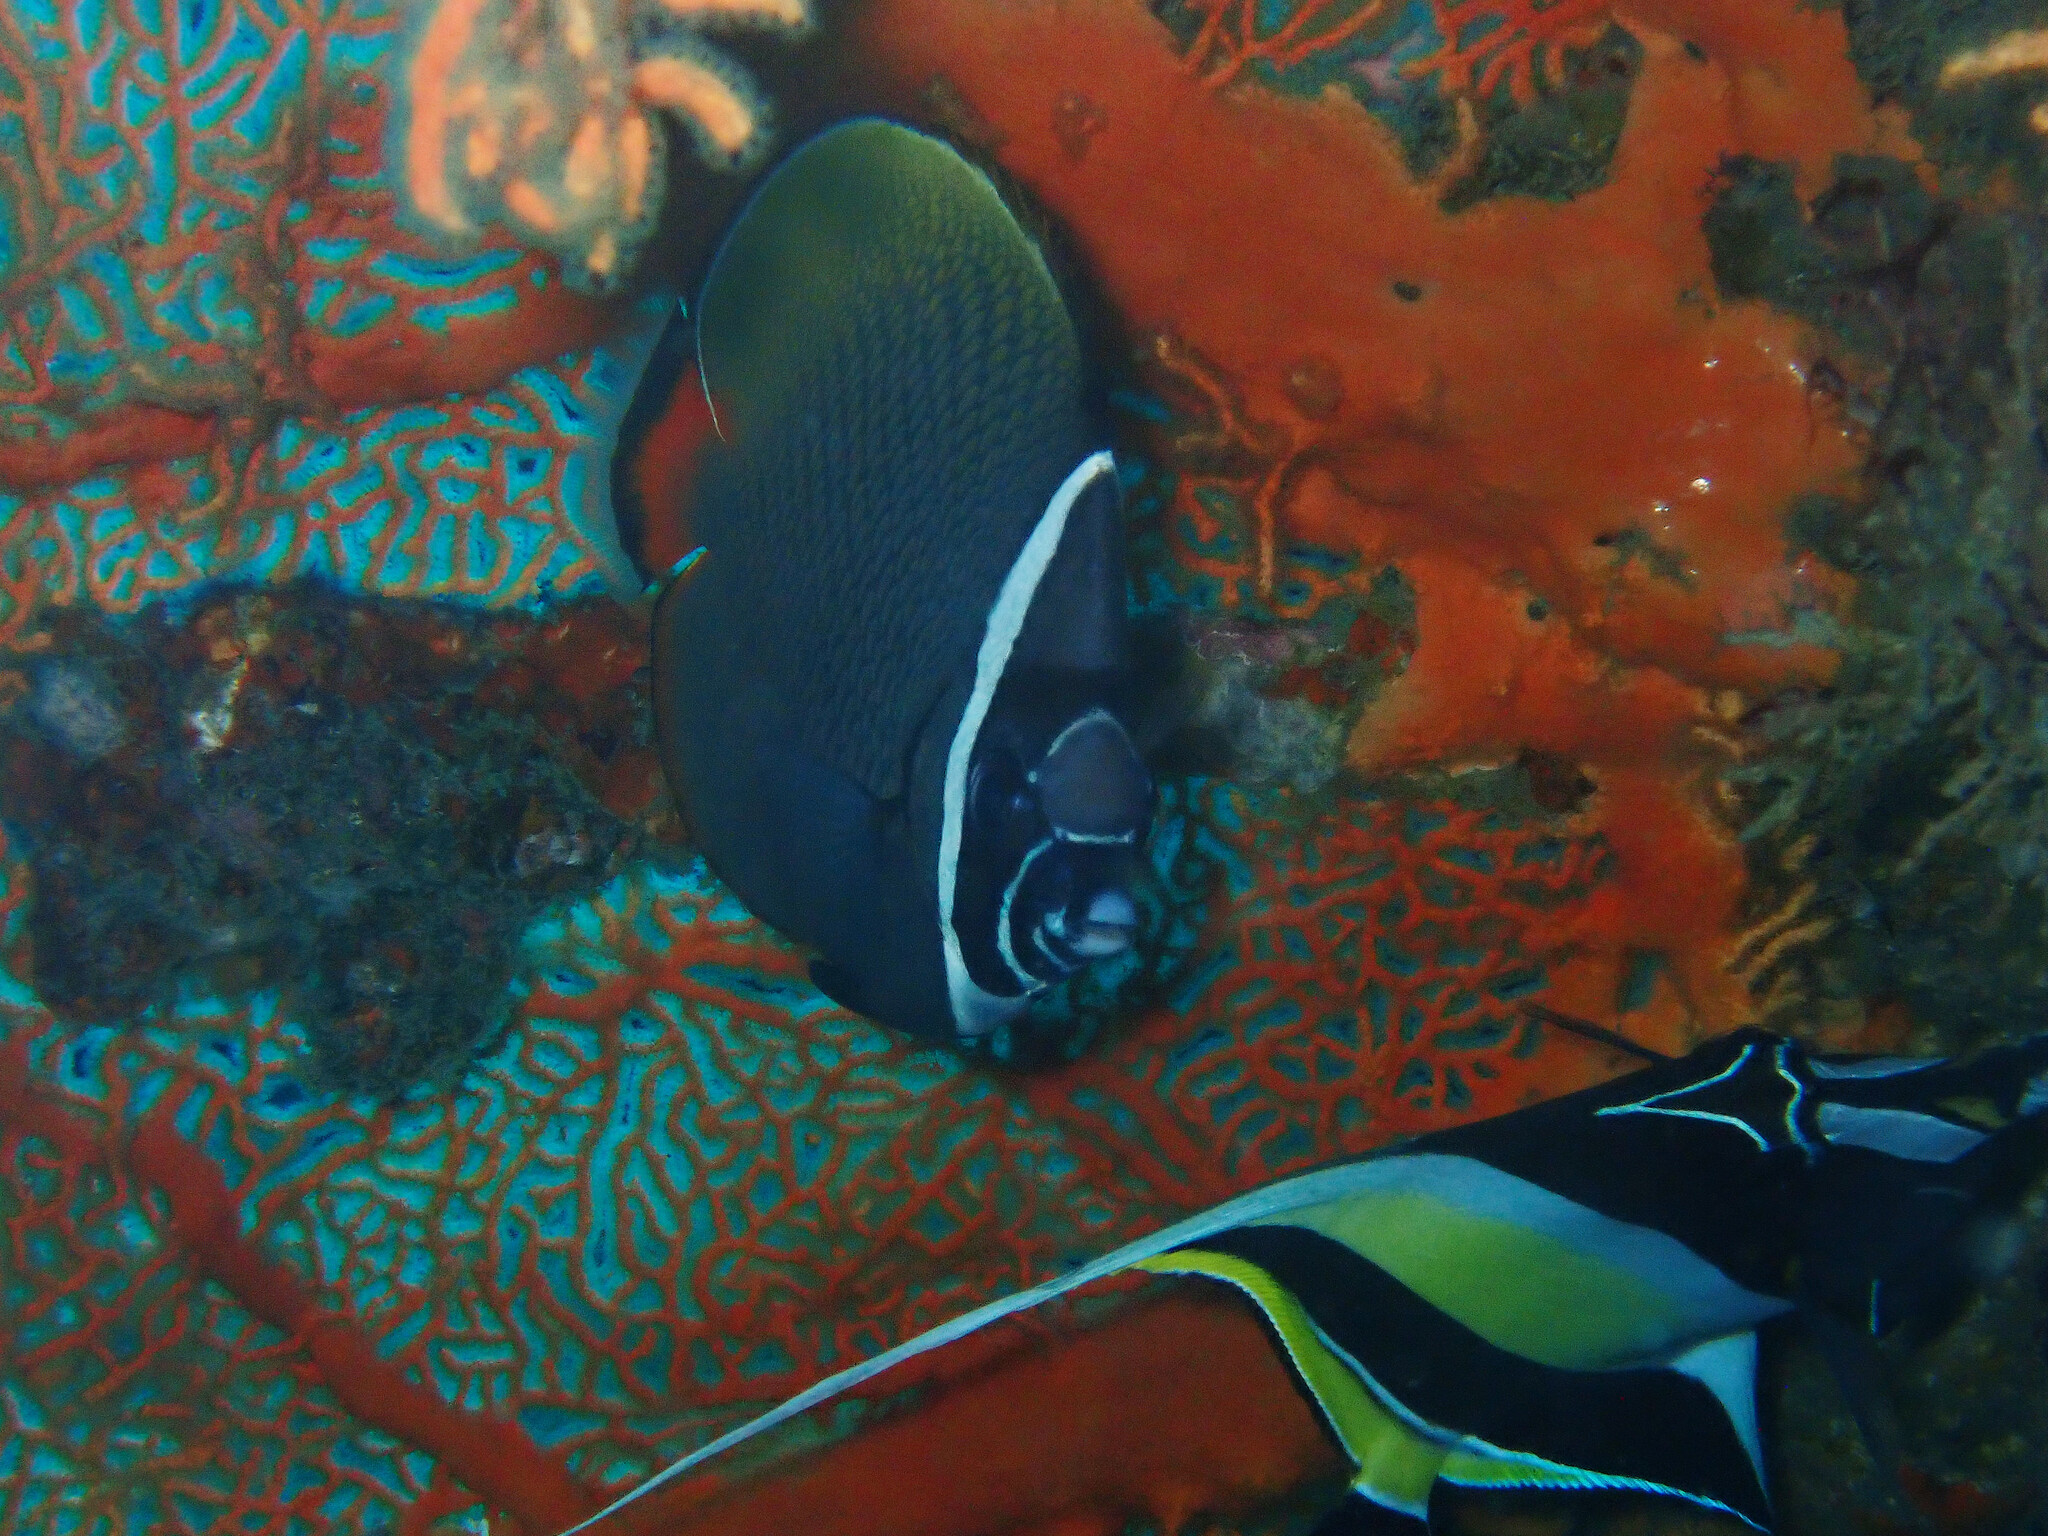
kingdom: Animalia
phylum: Chordata
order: Perciformes
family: Chaetodontidae
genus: Chaetodon
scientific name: Chaetodon collare
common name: Redtail butterflyfish
